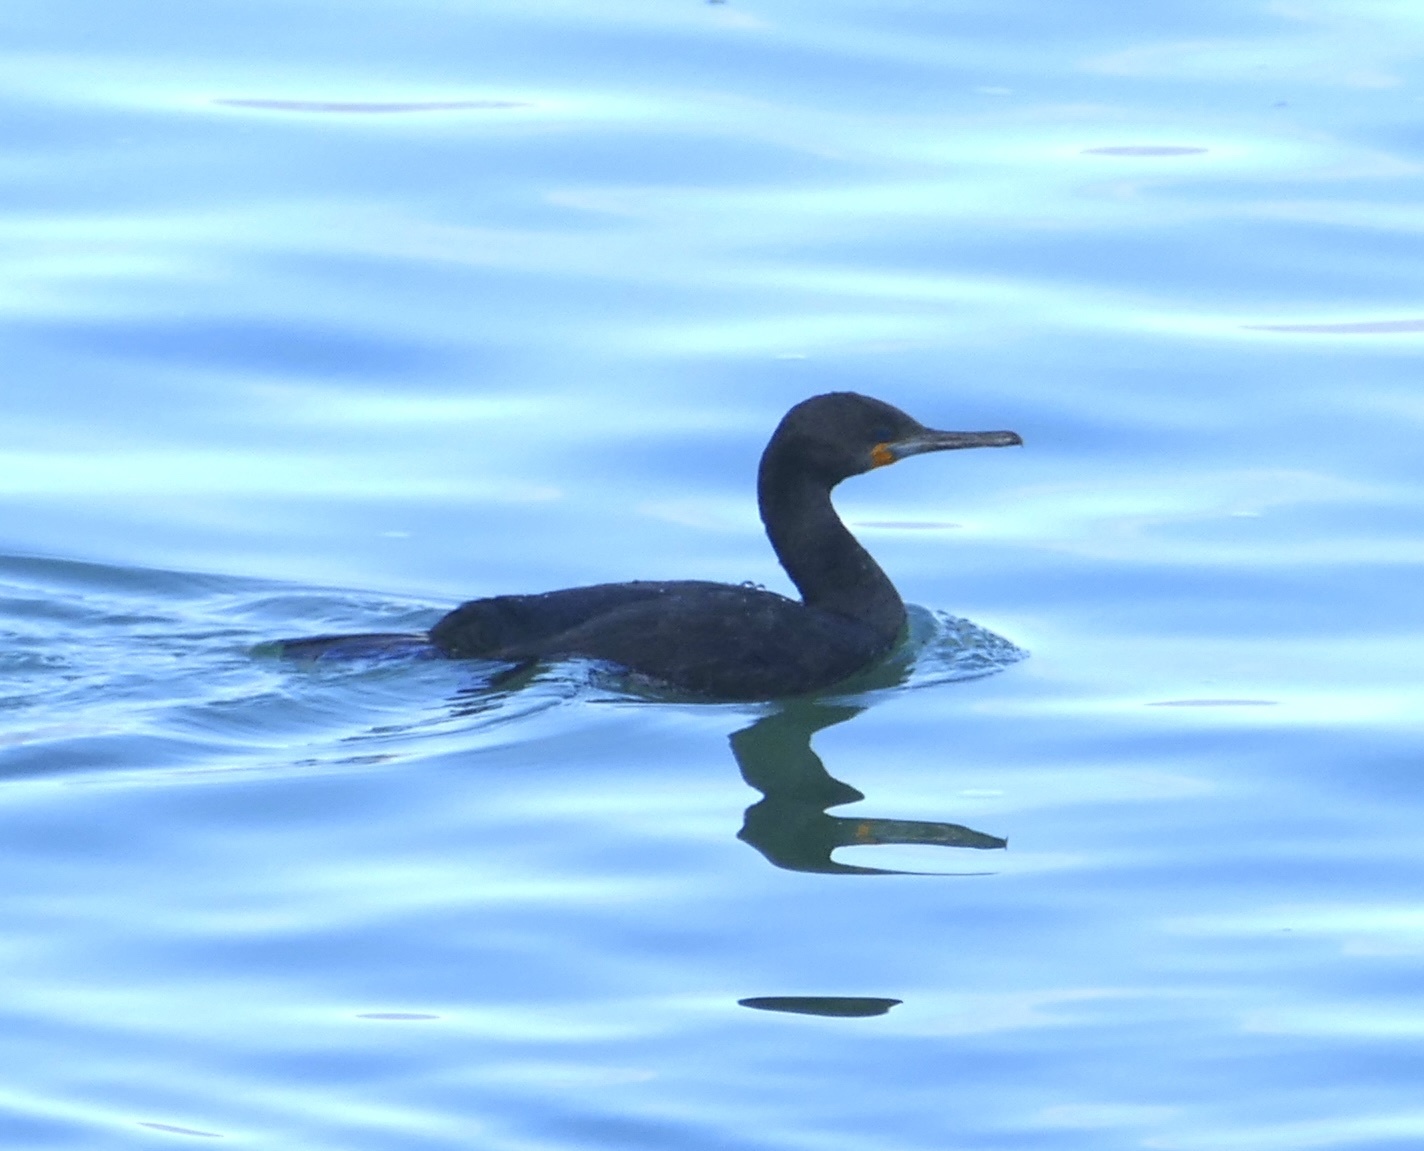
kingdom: Animalia
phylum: Chordata
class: Aves
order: Suliformes
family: Phalacrocoracidae
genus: Phalacrocorax
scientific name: Phalacrocorax capensis
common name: Cape cormorant
